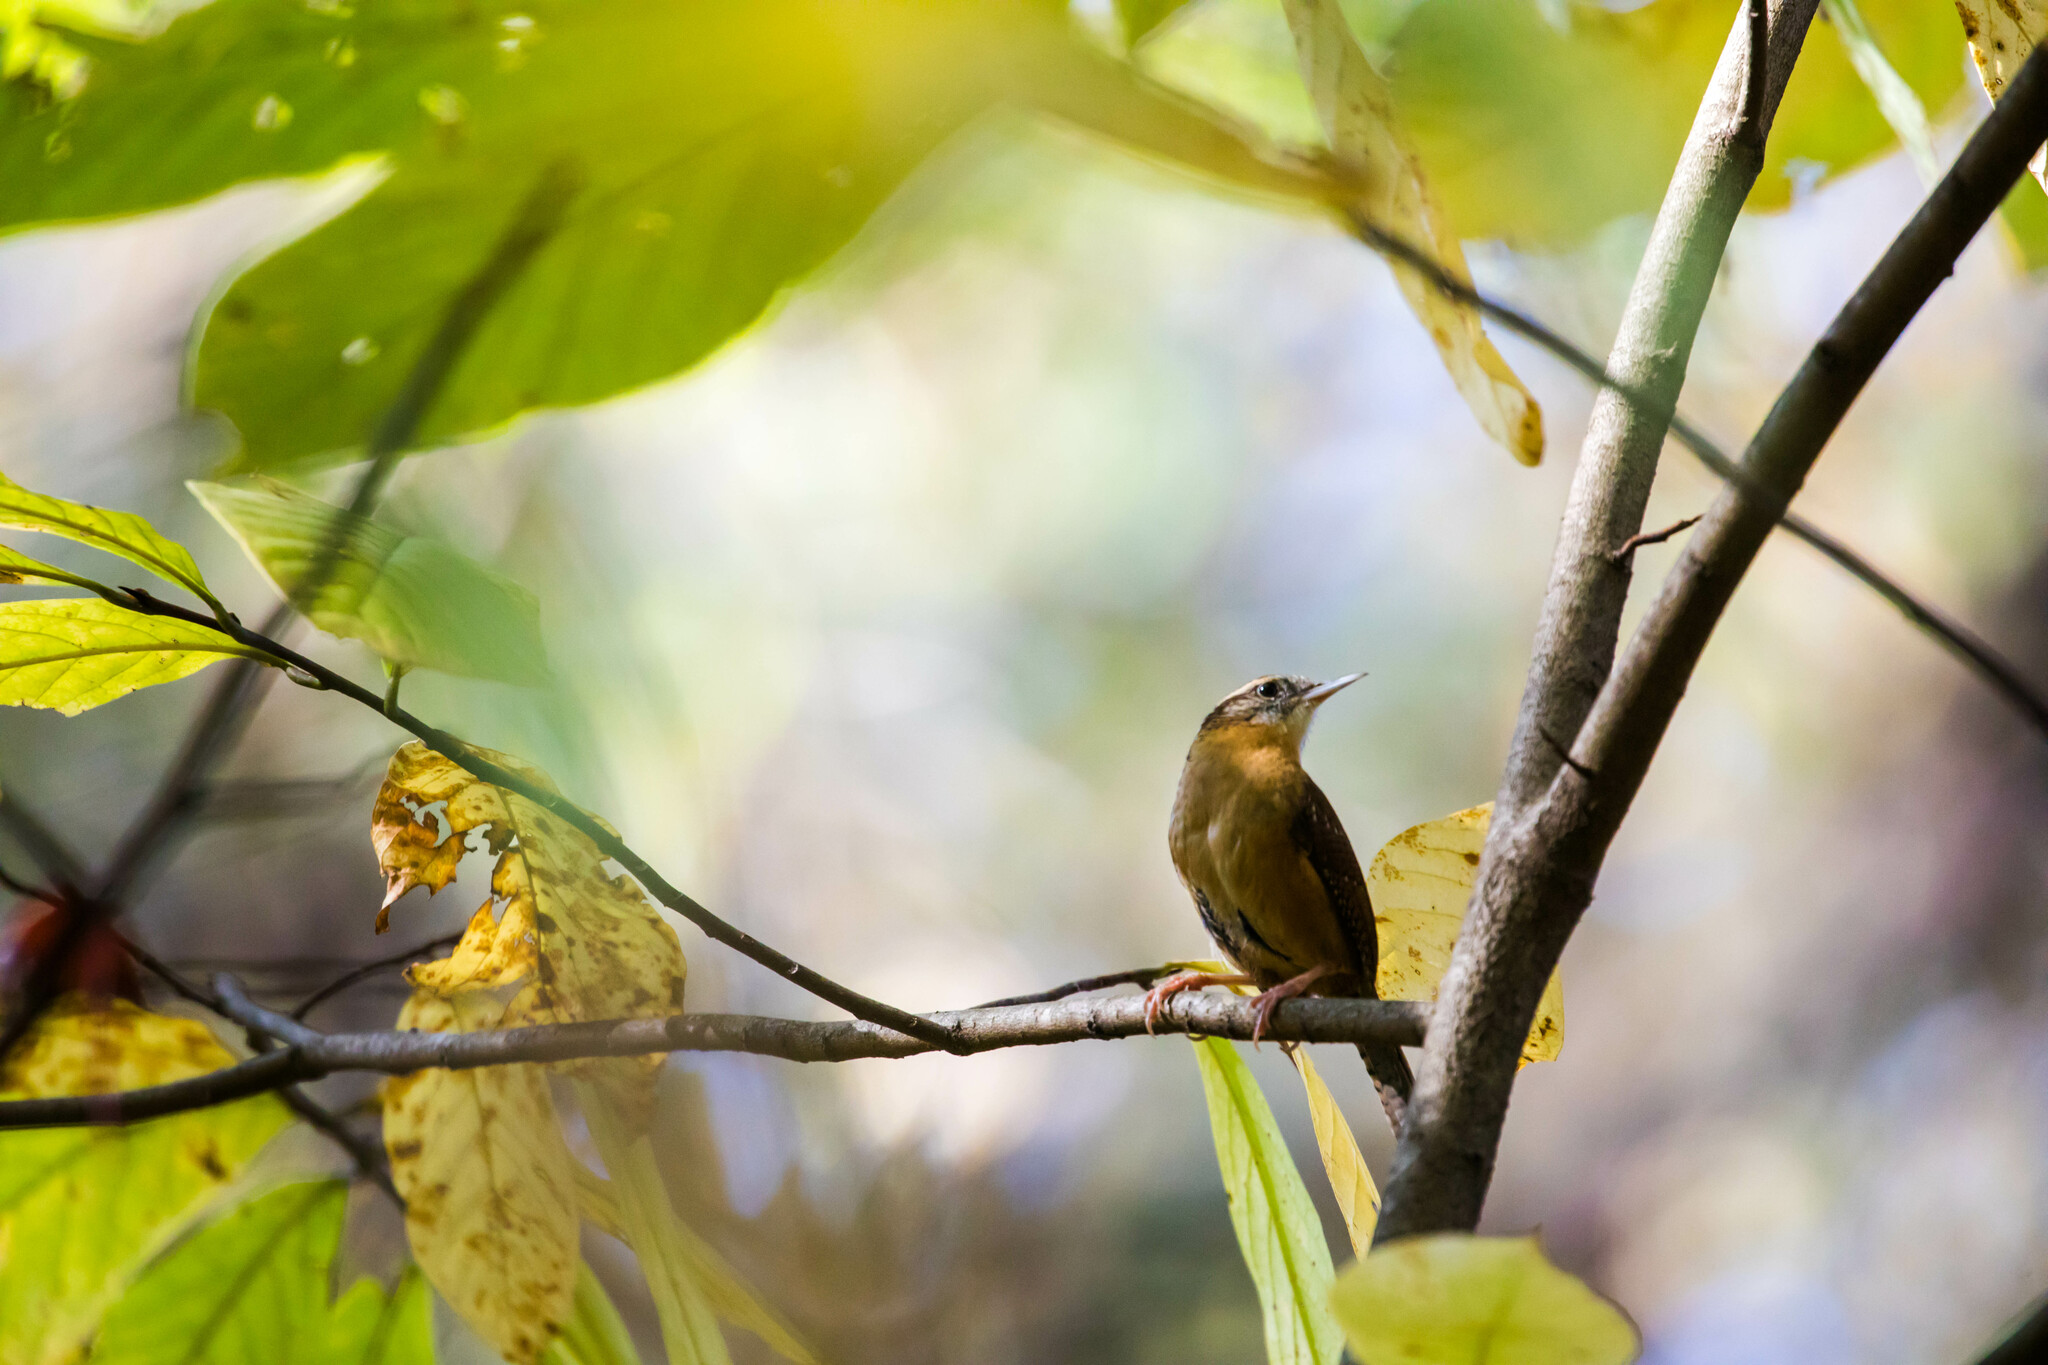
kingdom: Animalia
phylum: Chordata
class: Aves
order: Passeriformes
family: Troglodytidae
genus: Thryothorus
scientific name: Thryothorus ludovicianus
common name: Carolina wren
